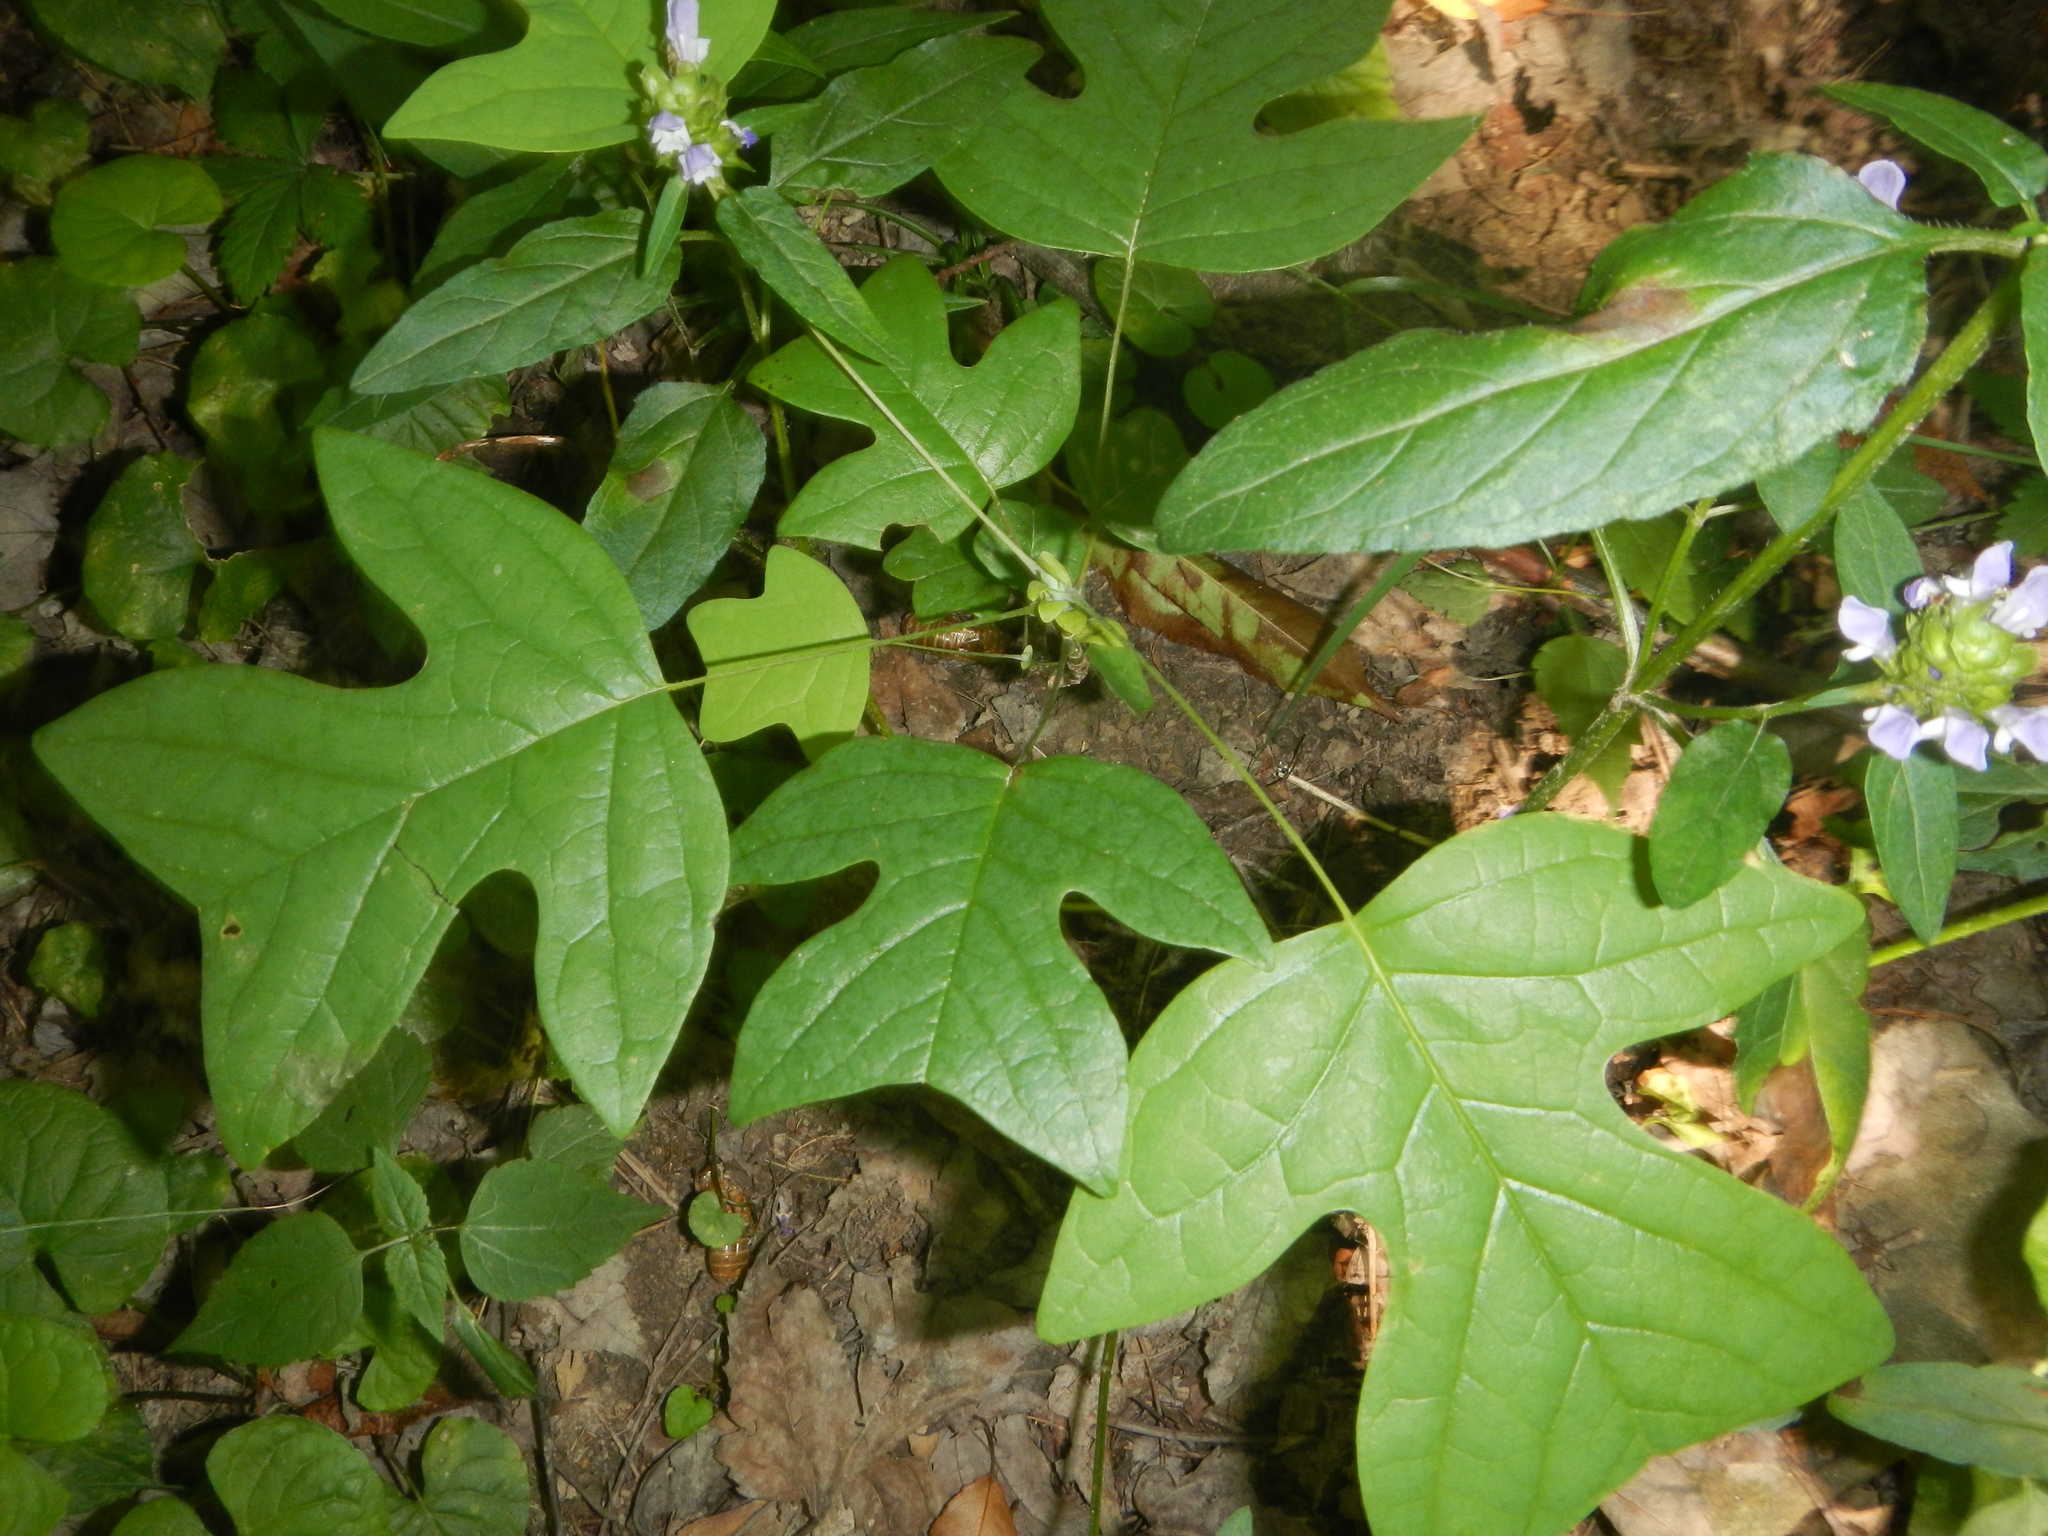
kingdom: Plantae
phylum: Tracheophyta
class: Magnoliopsida
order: Magnoliales
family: Magnoliaceae
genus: Liriodendron
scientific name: Liriodendron tulipifera
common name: Tulip tree
